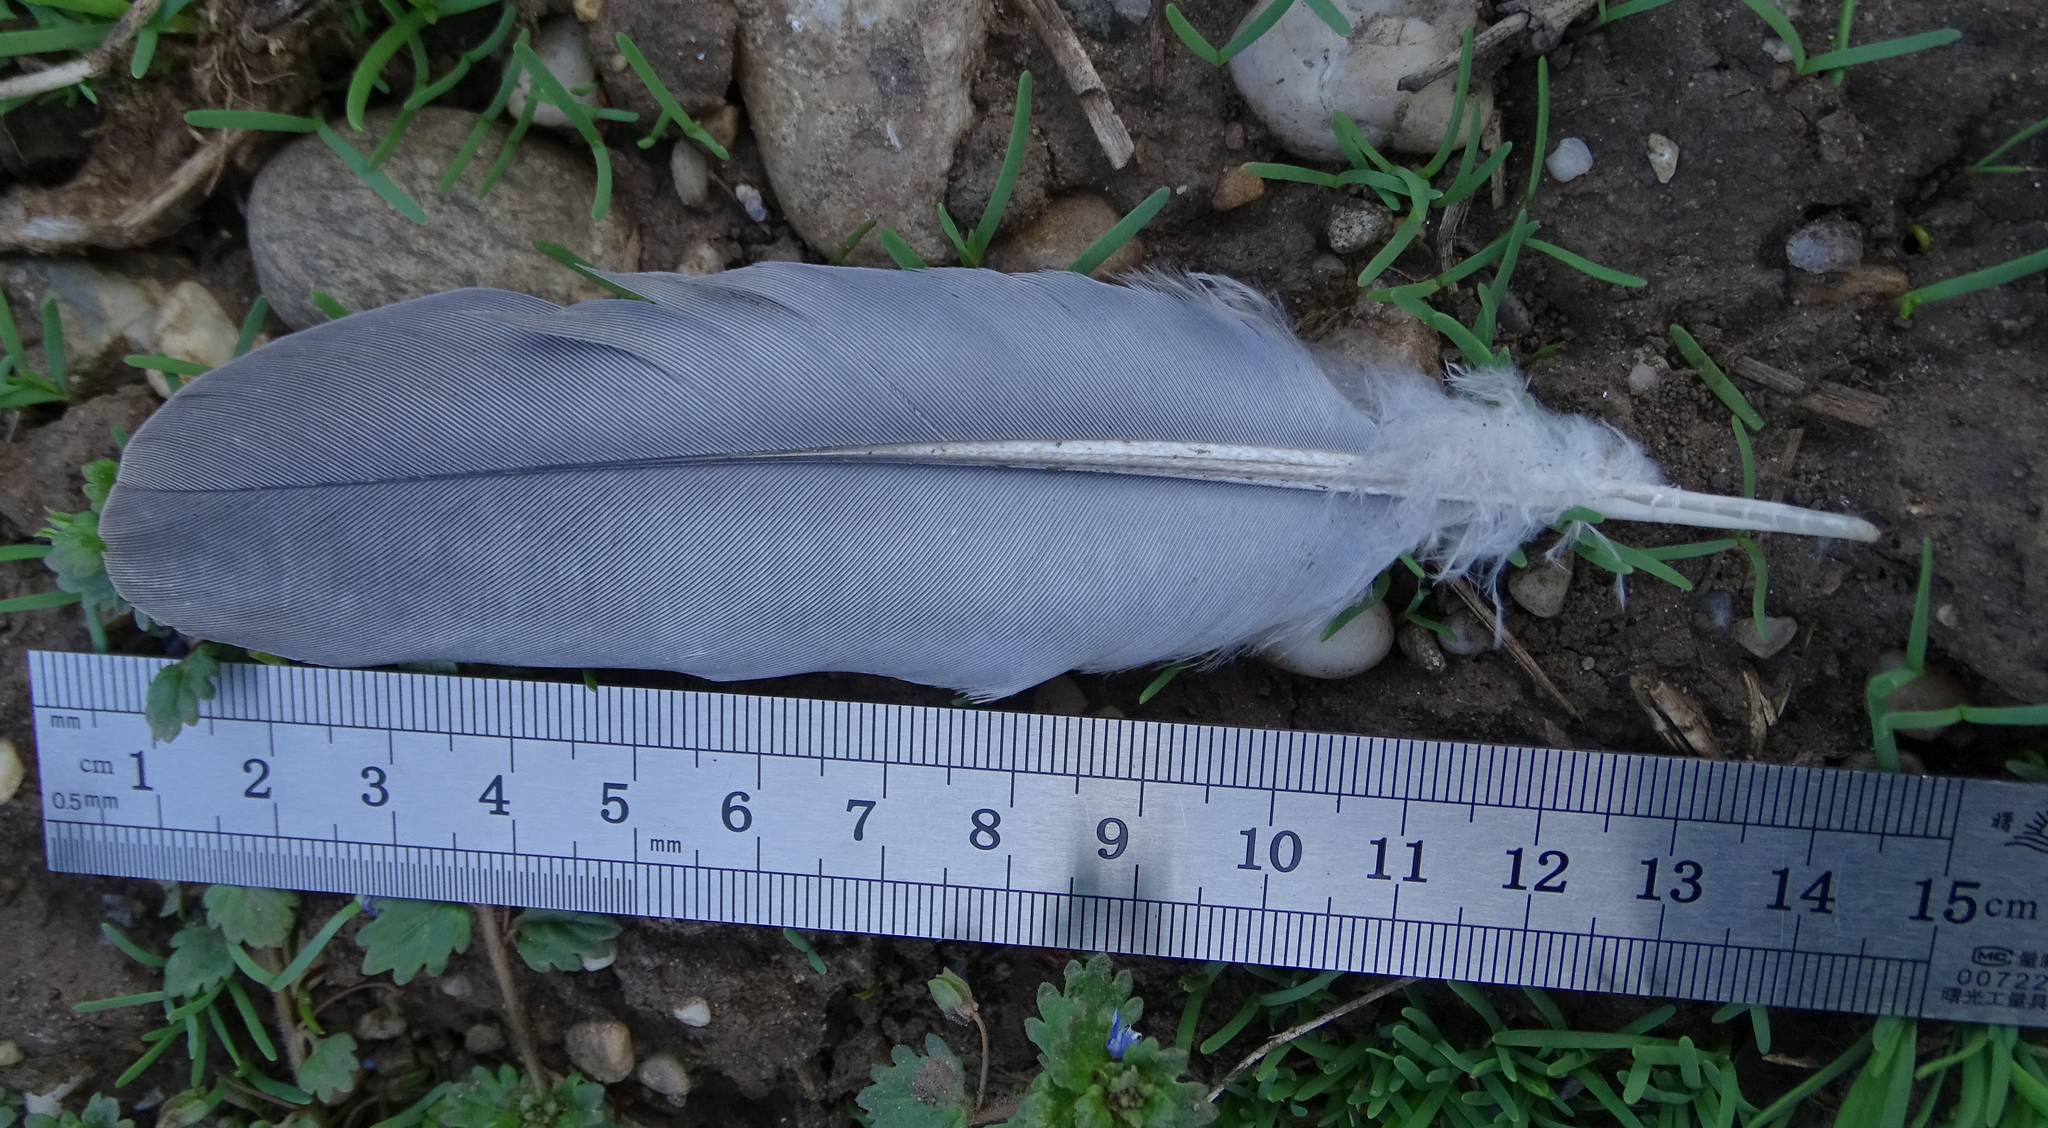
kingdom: Animalia
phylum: Chordata
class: Aves
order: Columbiformes
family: Columbidae
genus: Columba
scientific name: Columba palumbus
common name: Common wood pigeon
